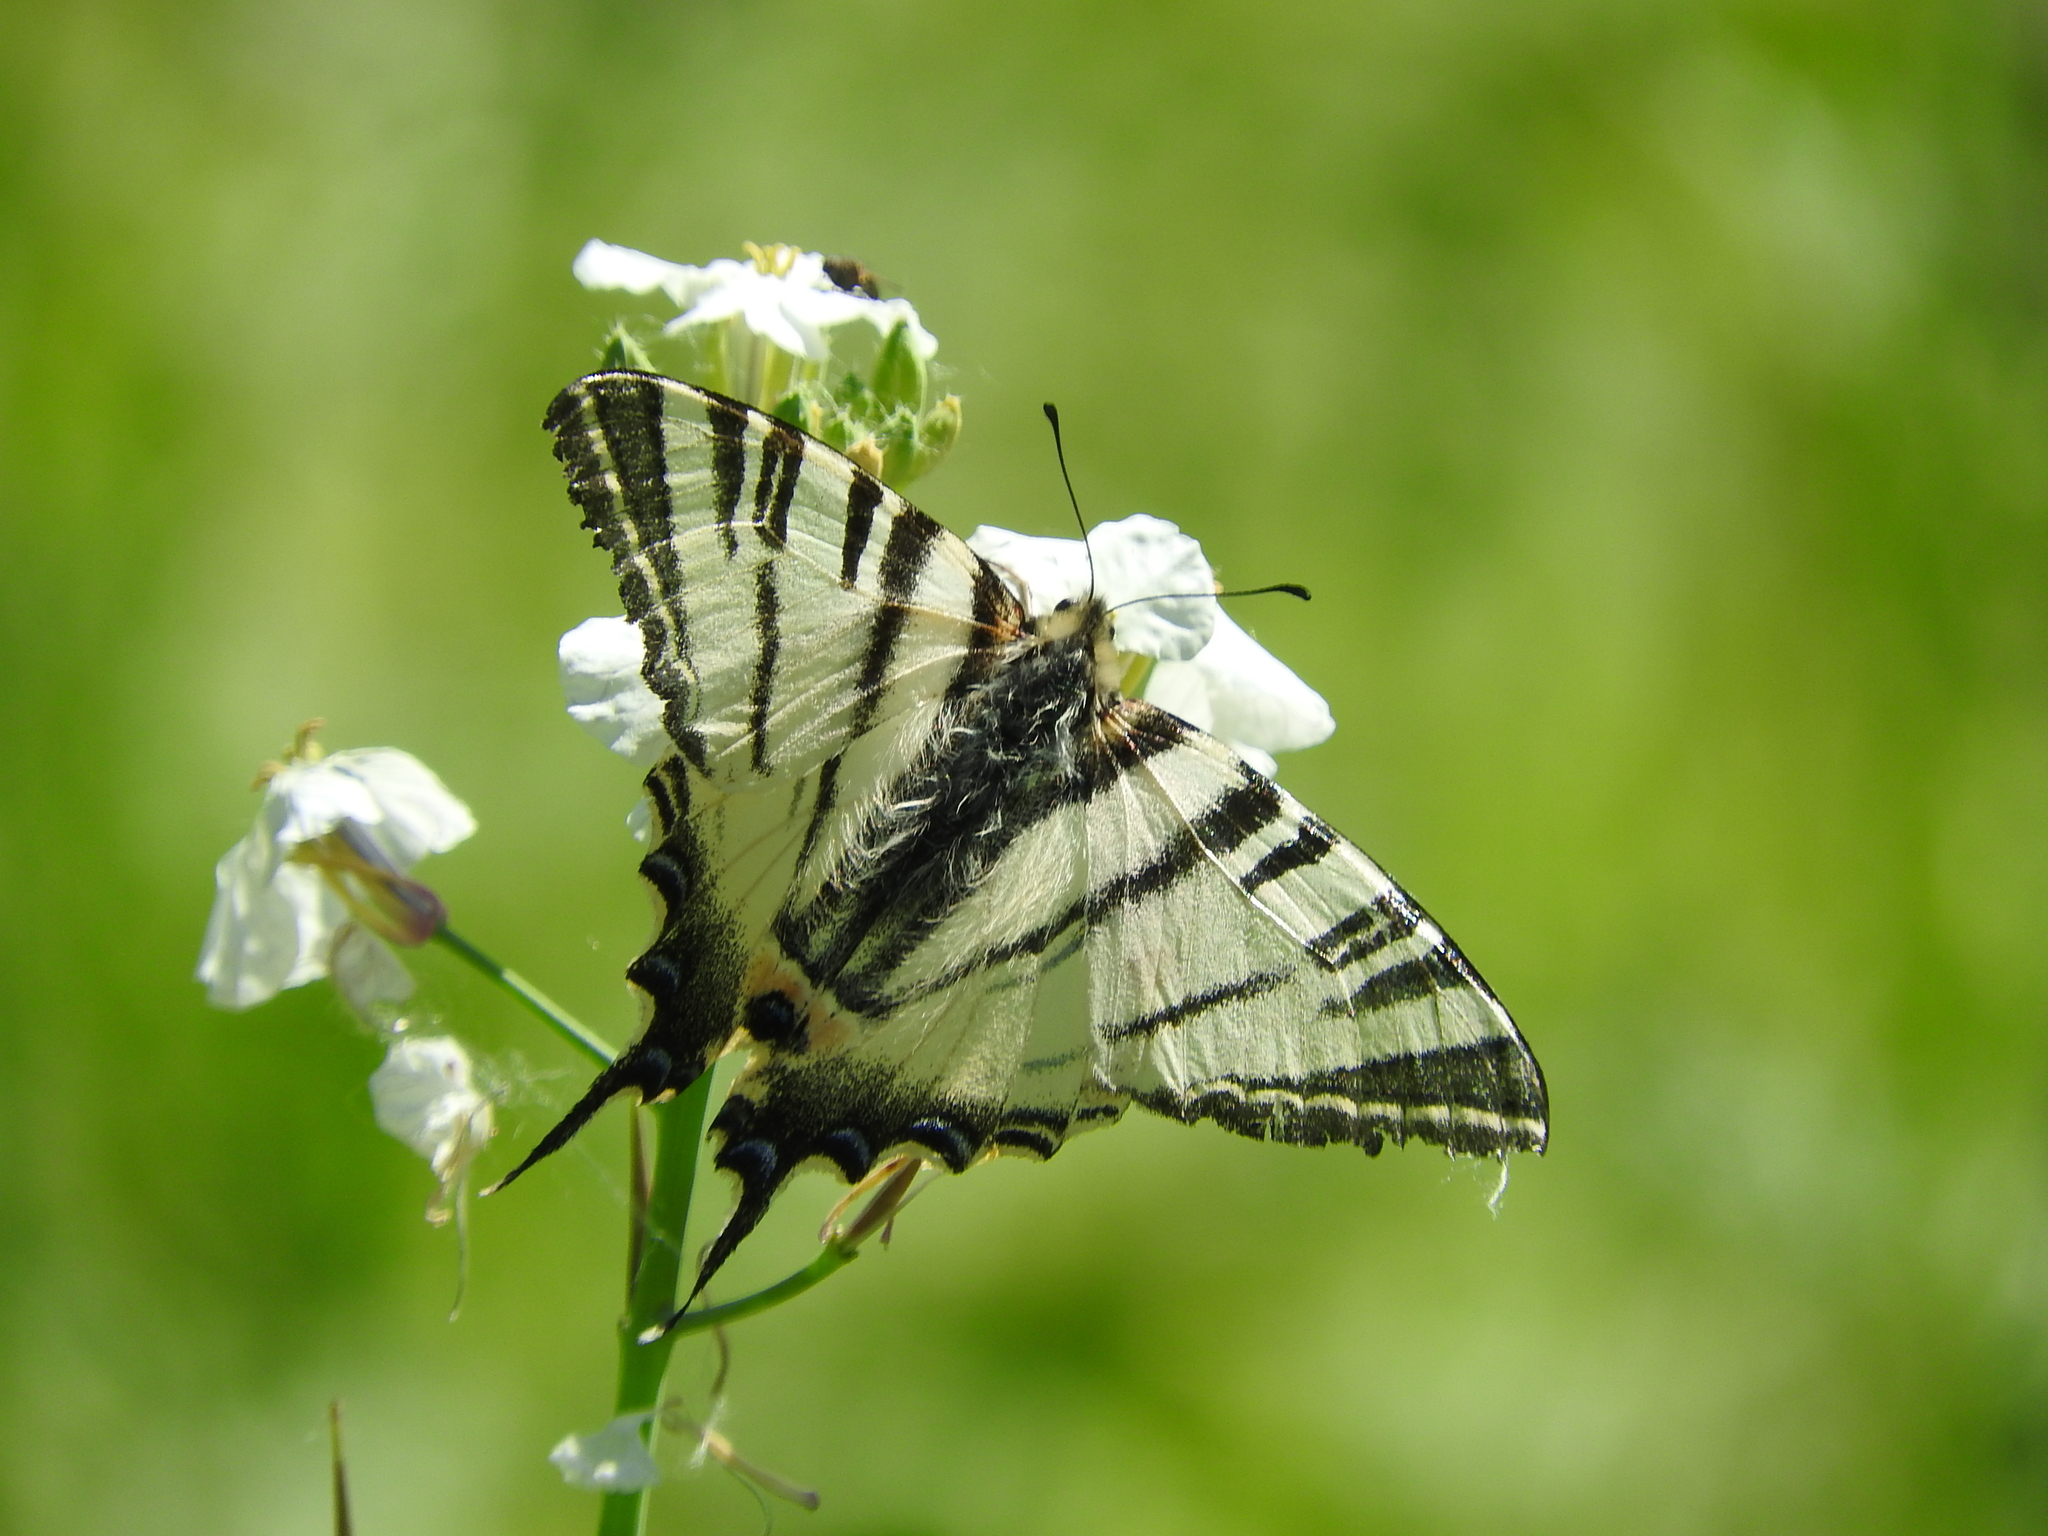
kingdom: Animalia
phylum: Arthropoda
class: Insecta
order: Lepidoptera
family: Papilionidae
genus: Iphiclides
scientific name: Iphiclides podalirius
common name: Scarce swallowtail
